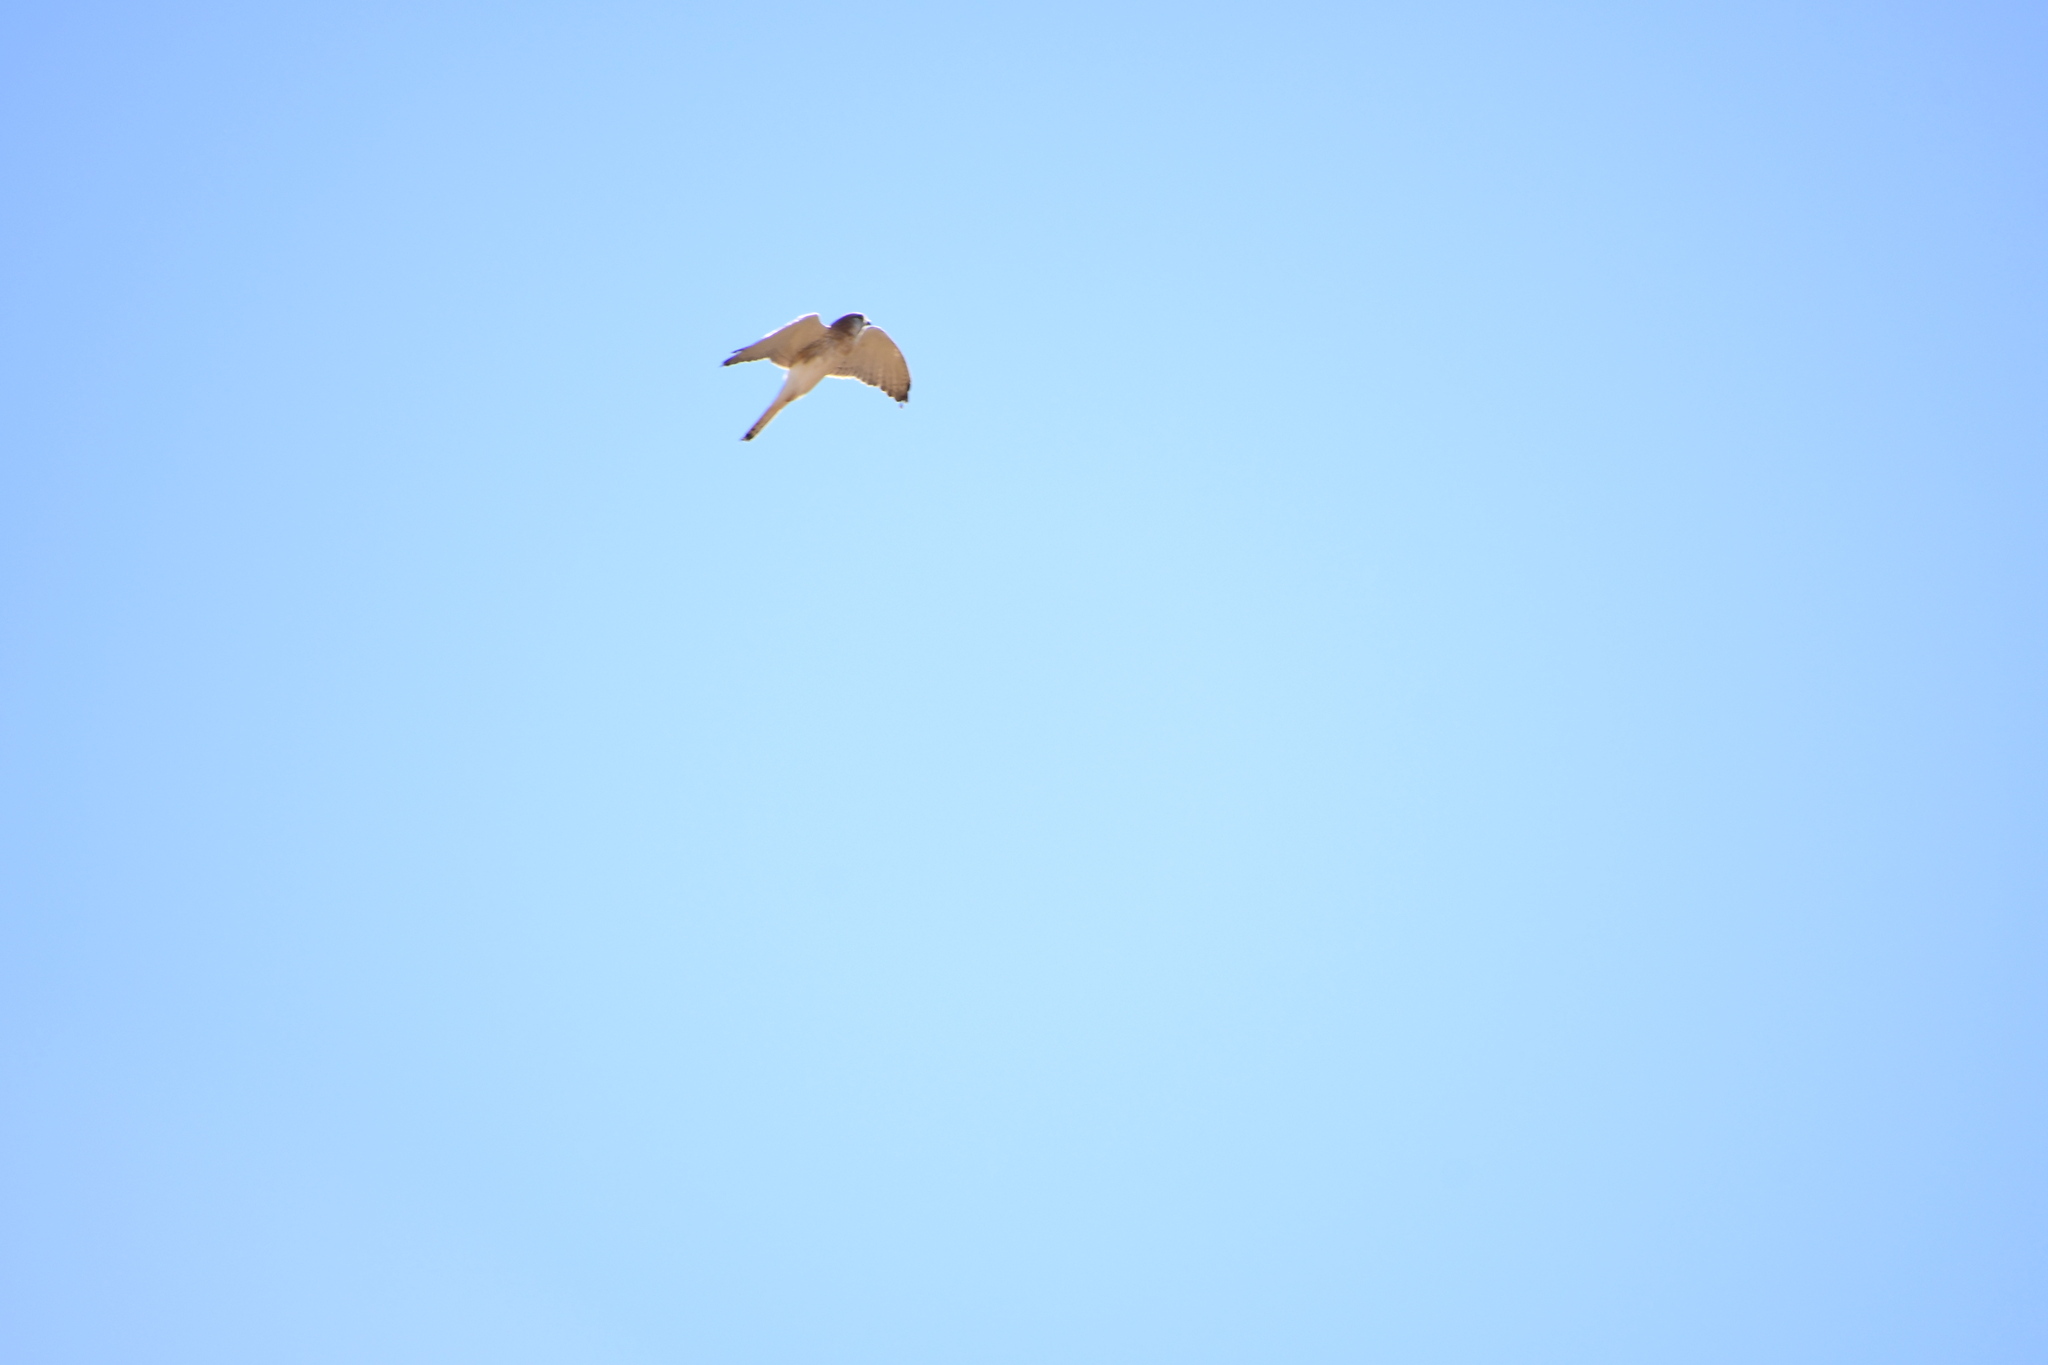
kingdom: Animalia
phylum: Chordata
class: Aves
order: Falconiformes
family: Falconidae
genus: Falco
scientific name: Falco cenchroides
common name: Nankeen kestrel
